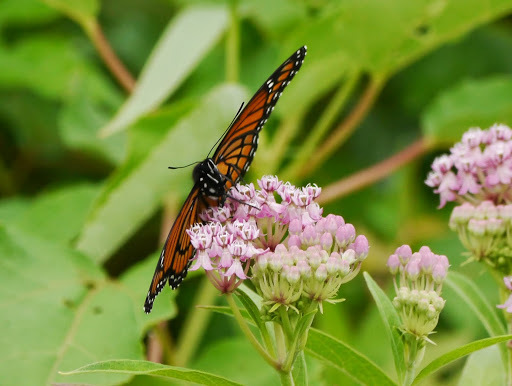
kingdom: Animalia
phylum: Arthropoda
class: Insecta
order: Lepidoptera
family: Nymphalidae
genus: Limenitis
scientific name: Limenitis archippus
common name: Viceroy
